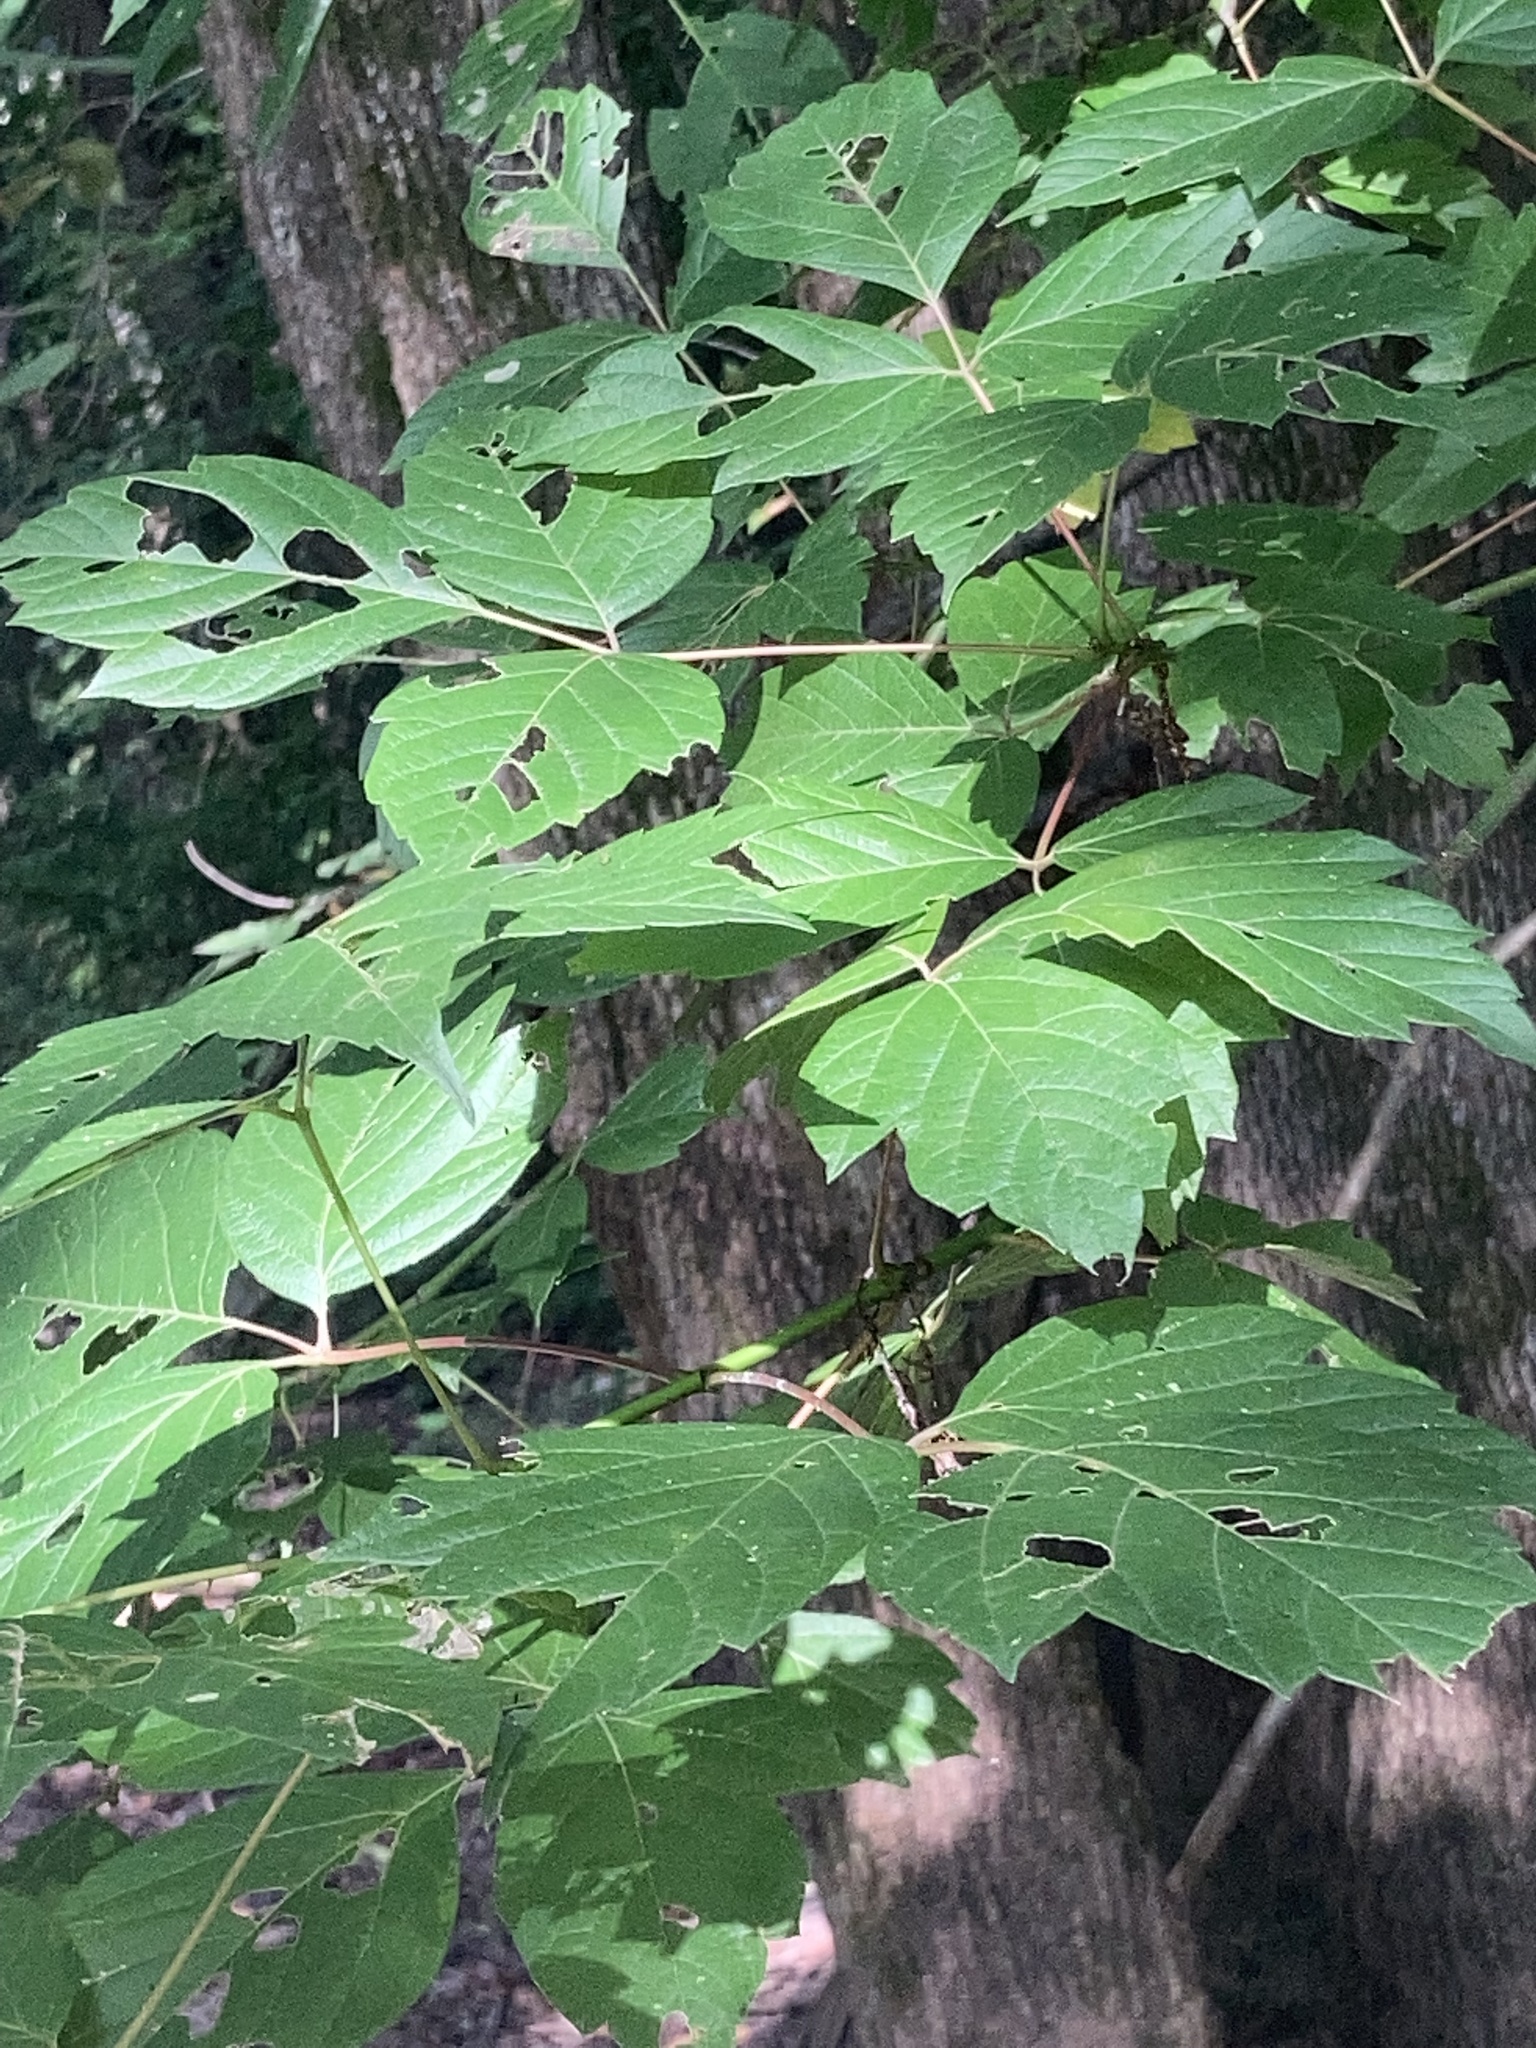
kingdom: Plantae
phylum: Tracheophyta
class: Magnoliopsida
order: Sapindales
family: Sapindaceae
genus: Acer
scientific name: Acer negundo
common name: Ashleaf maple
